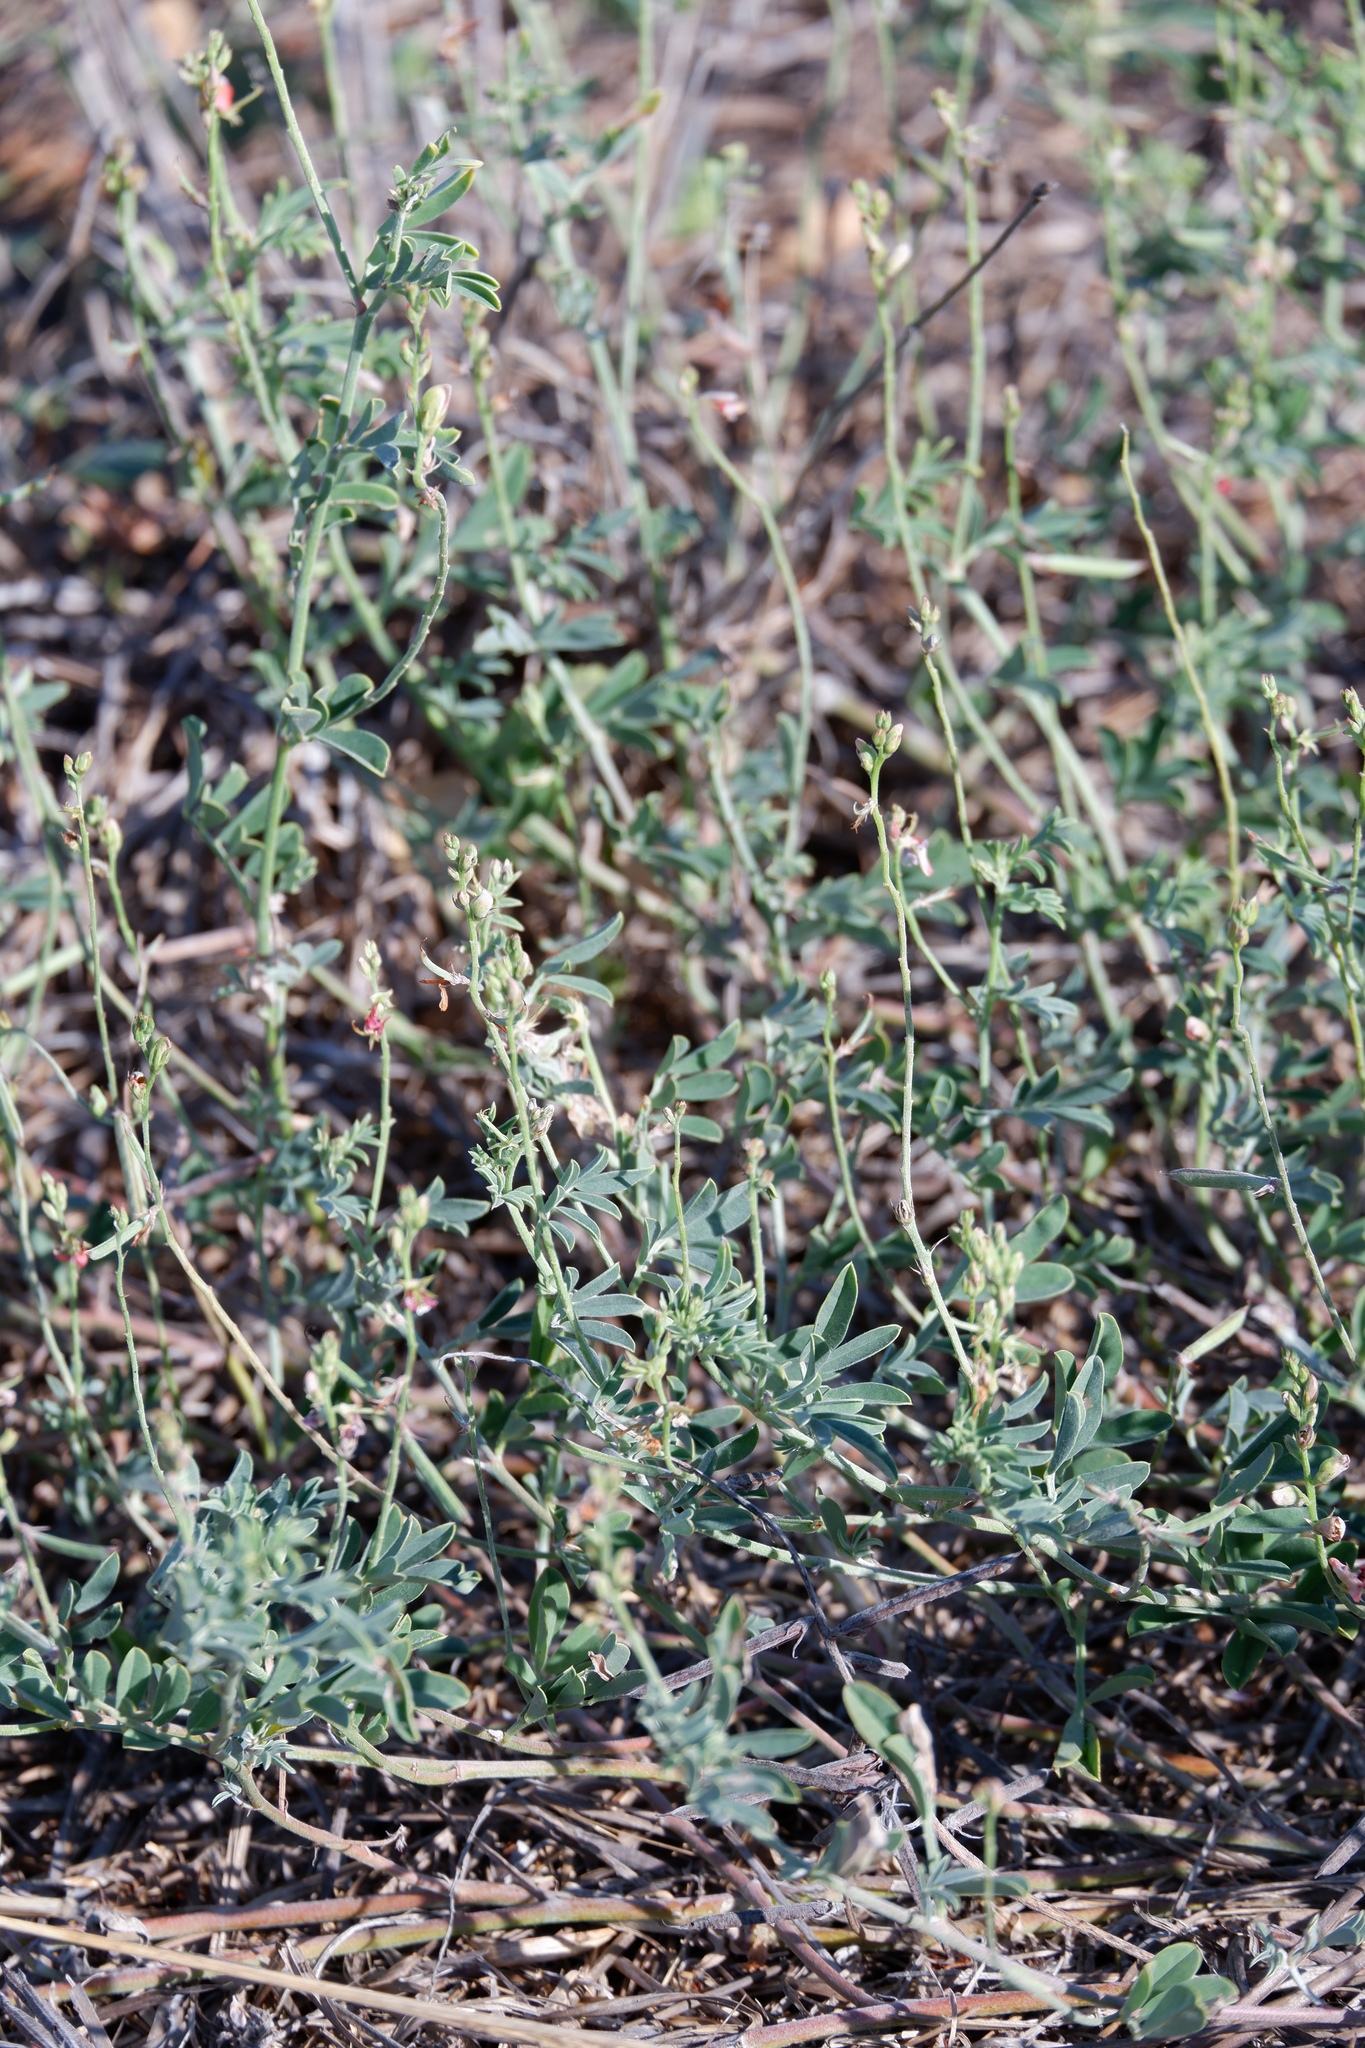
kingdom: Plantae
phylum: Tracheophyta
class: Magnoliopsida
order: Fabales
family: Fabaceae
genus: Indigofera
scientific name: Indigofera miniata
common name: Coast indigo
